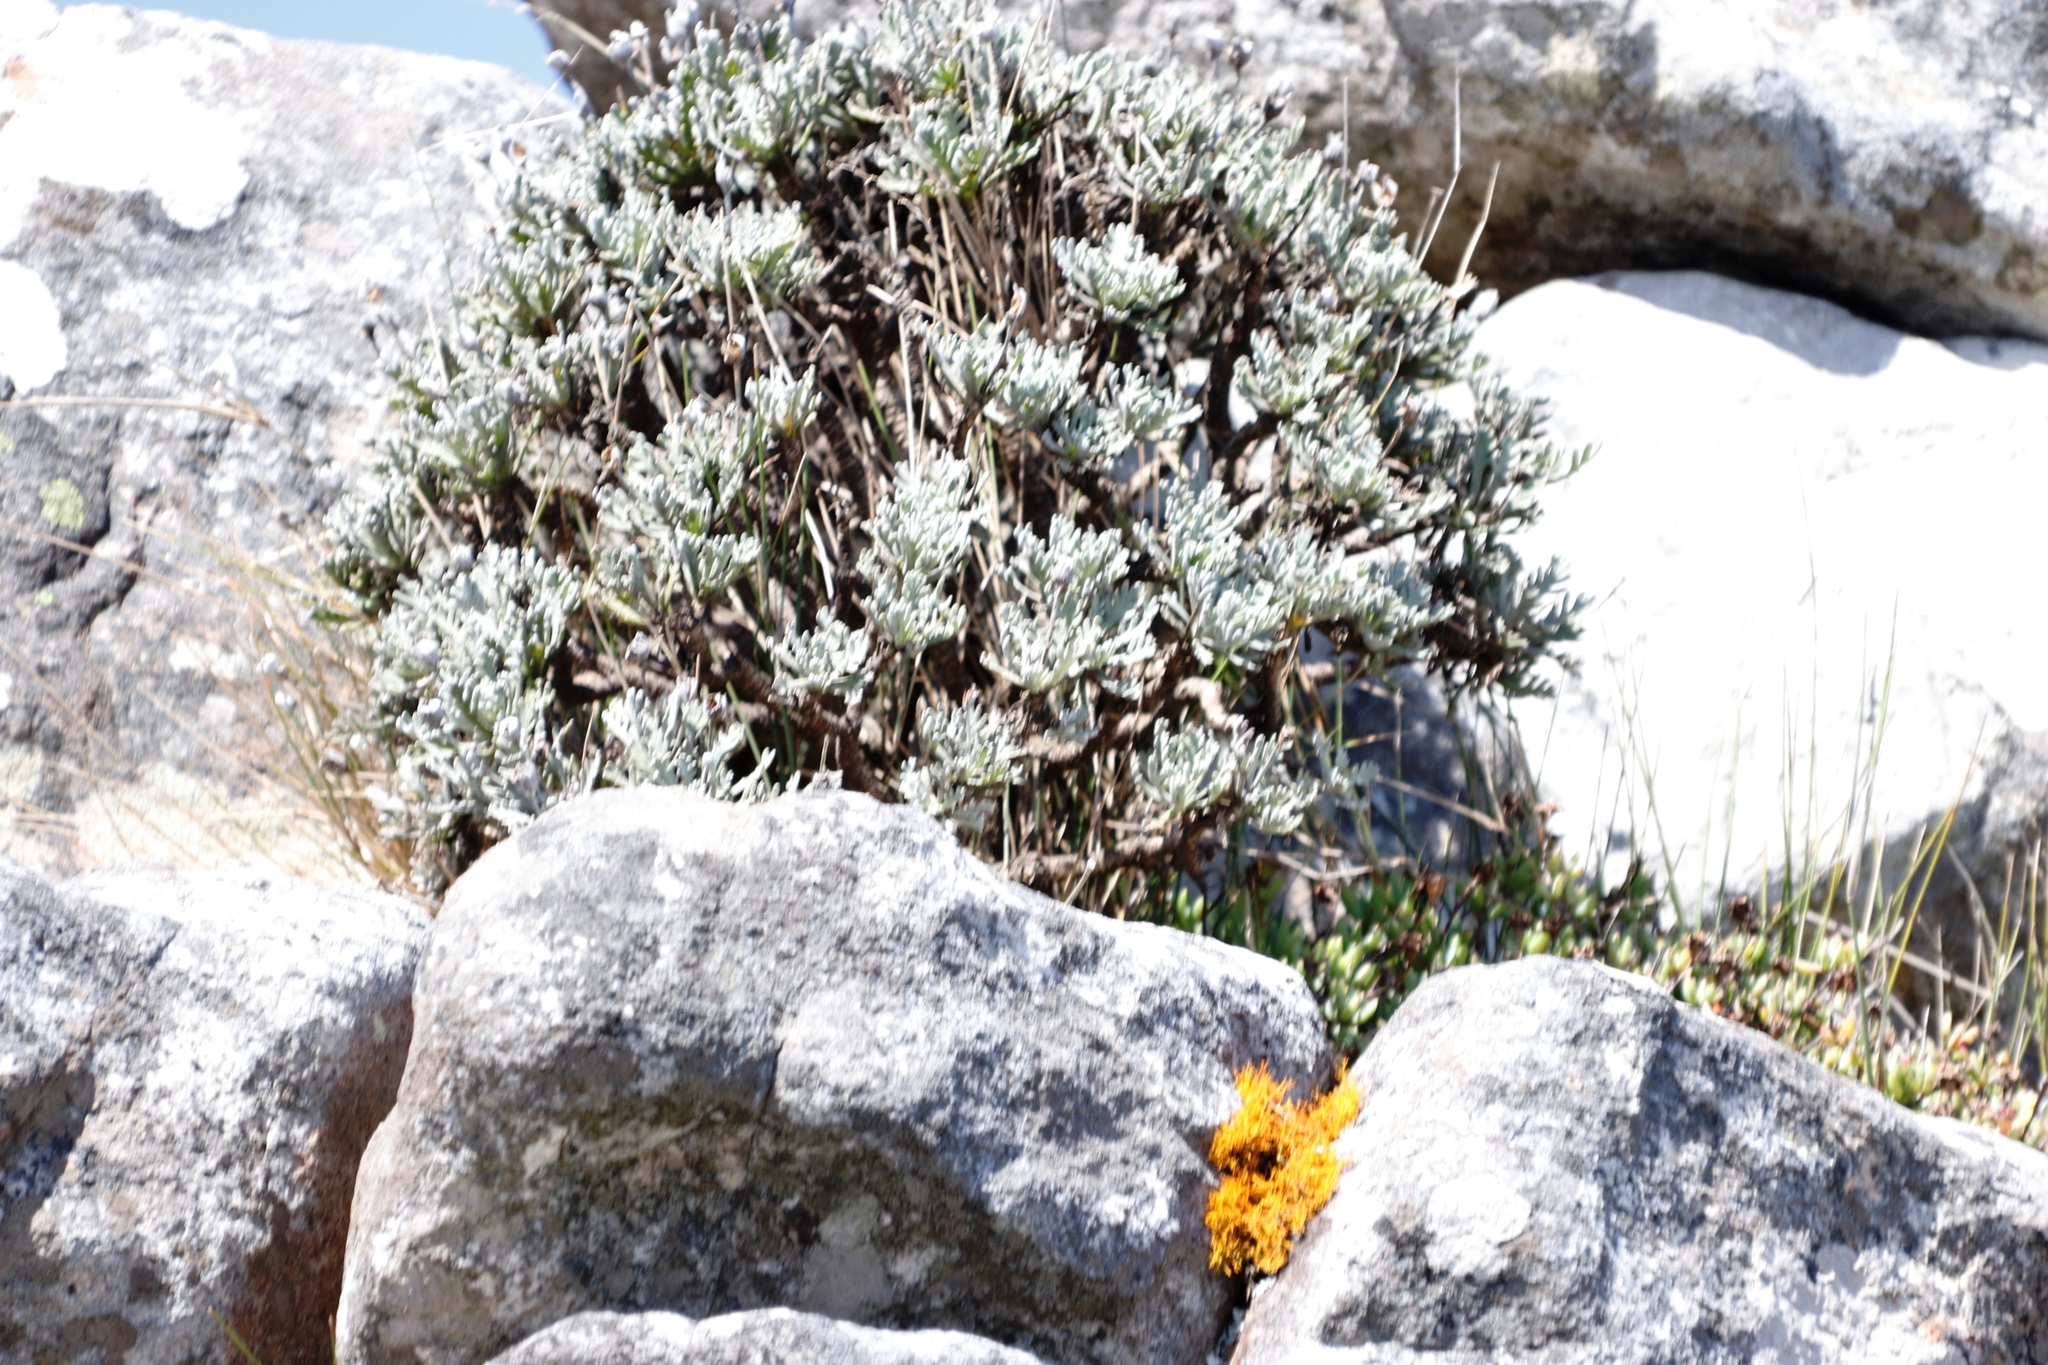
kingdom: Plantae
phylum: Tracheophyta
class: Magnoliopsida
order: Asterales
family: Asteraceae
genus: Euryops
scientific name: Euryops pectinatus
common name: Gray-leaf euryops
